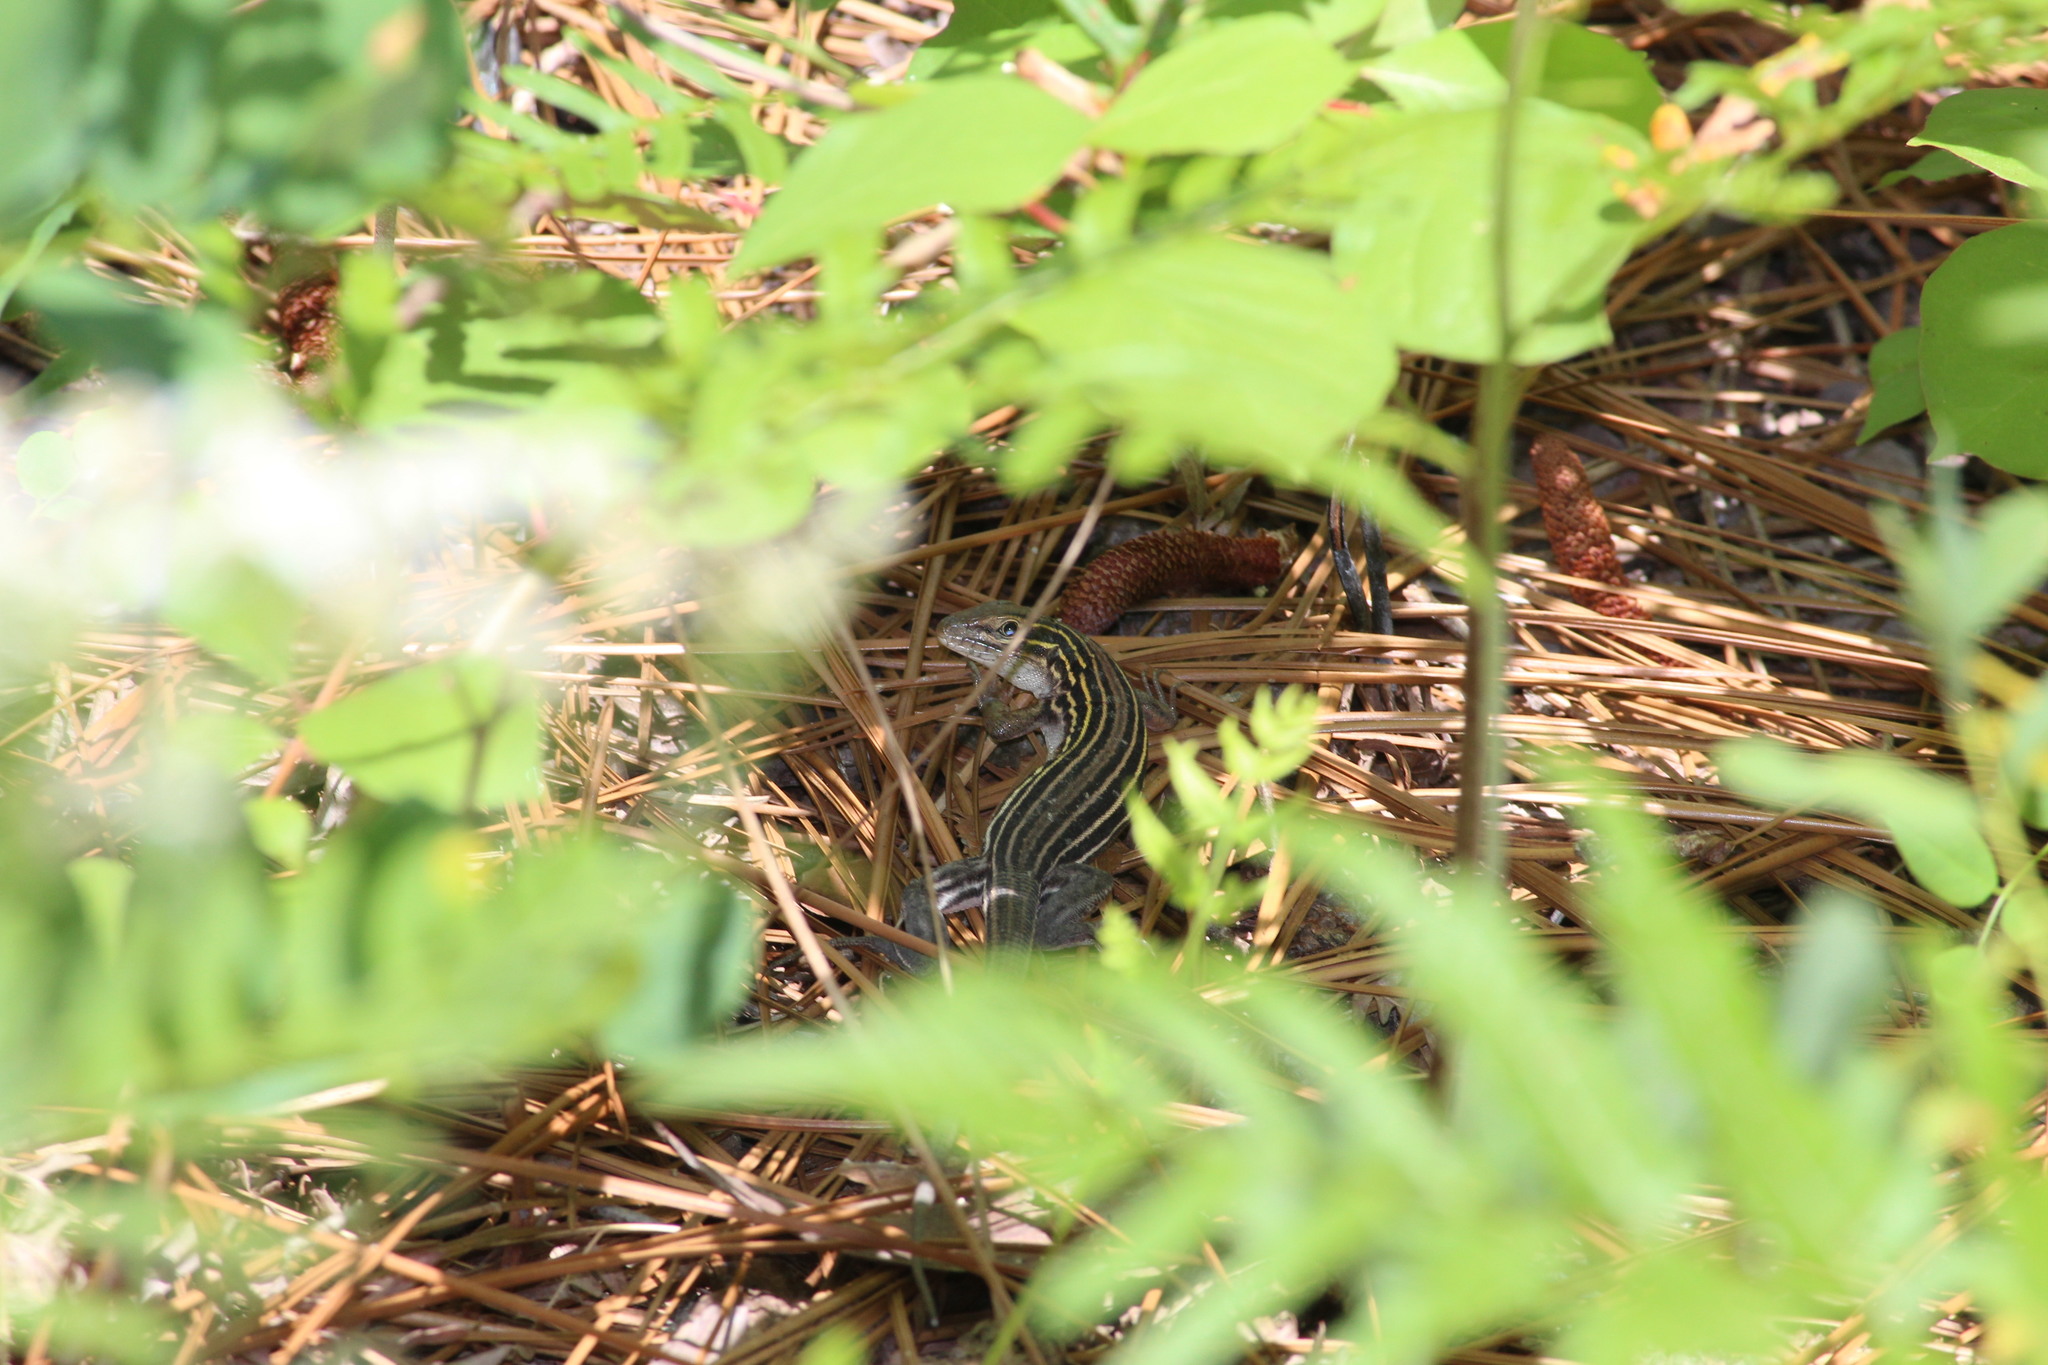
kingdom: Animalia
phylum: Chordata
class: Squamata
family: Teiidae
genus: Aspidoscelis
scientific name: Aspidoscelis sexlineatus
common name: Six-lined racerunner
